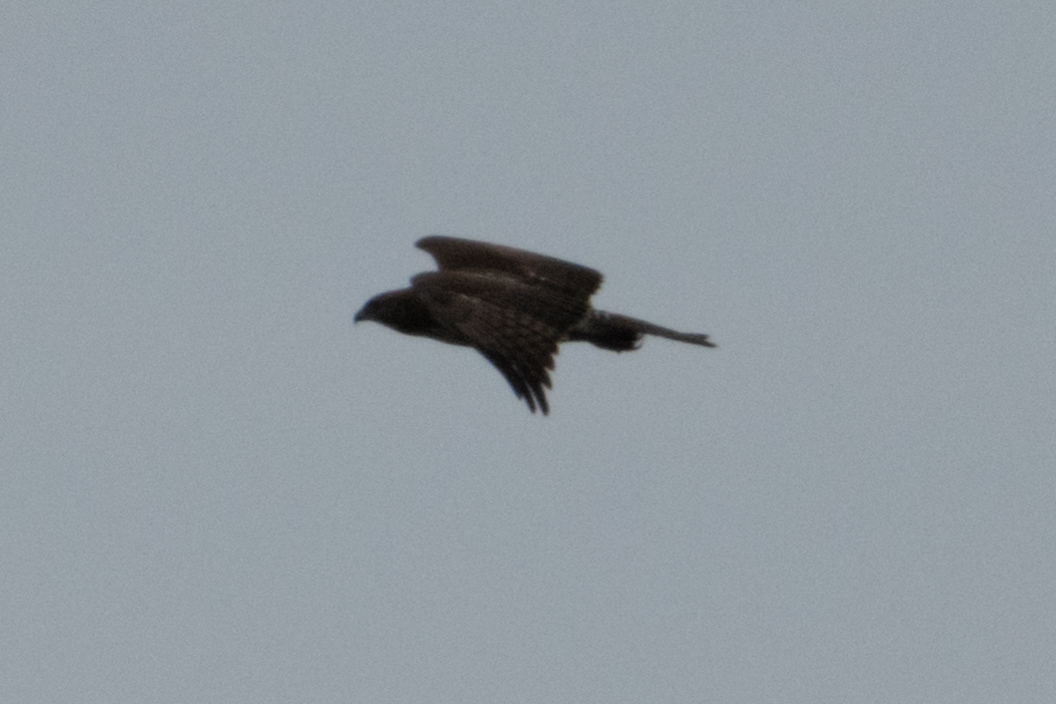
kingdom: Animalia
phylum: Chordata
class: Aves
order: Accipitriformes
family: Accipitridae
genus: Buteo
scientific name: Buteo jamaicensis
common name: Red-tailed hawk
